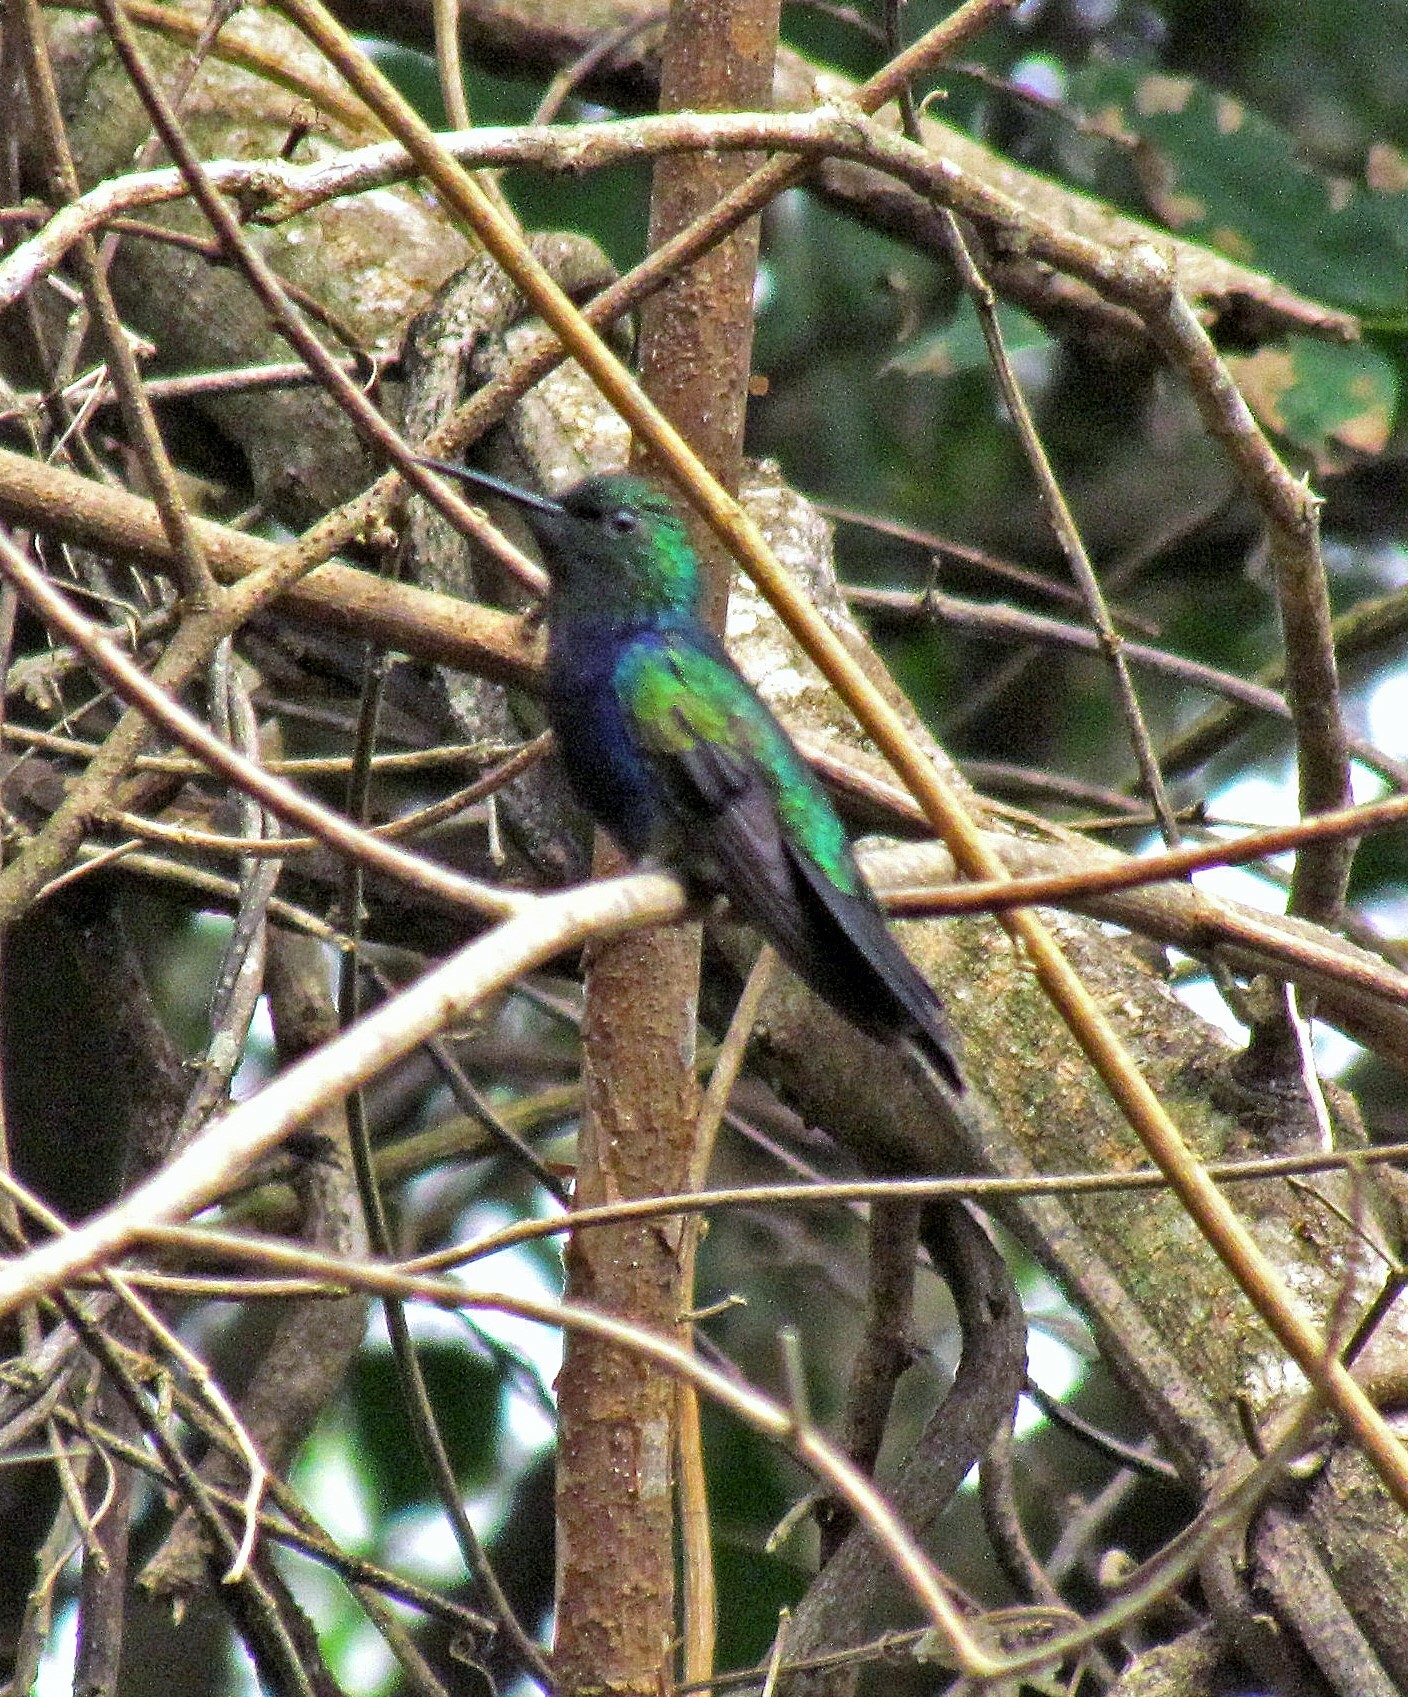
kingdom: Animalia
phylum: Chordata
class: Aves
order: Apodiformes
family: Trochilidae
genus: Thalurania
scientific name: Thalurania furcata
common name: Fork-tailed woodnymph
